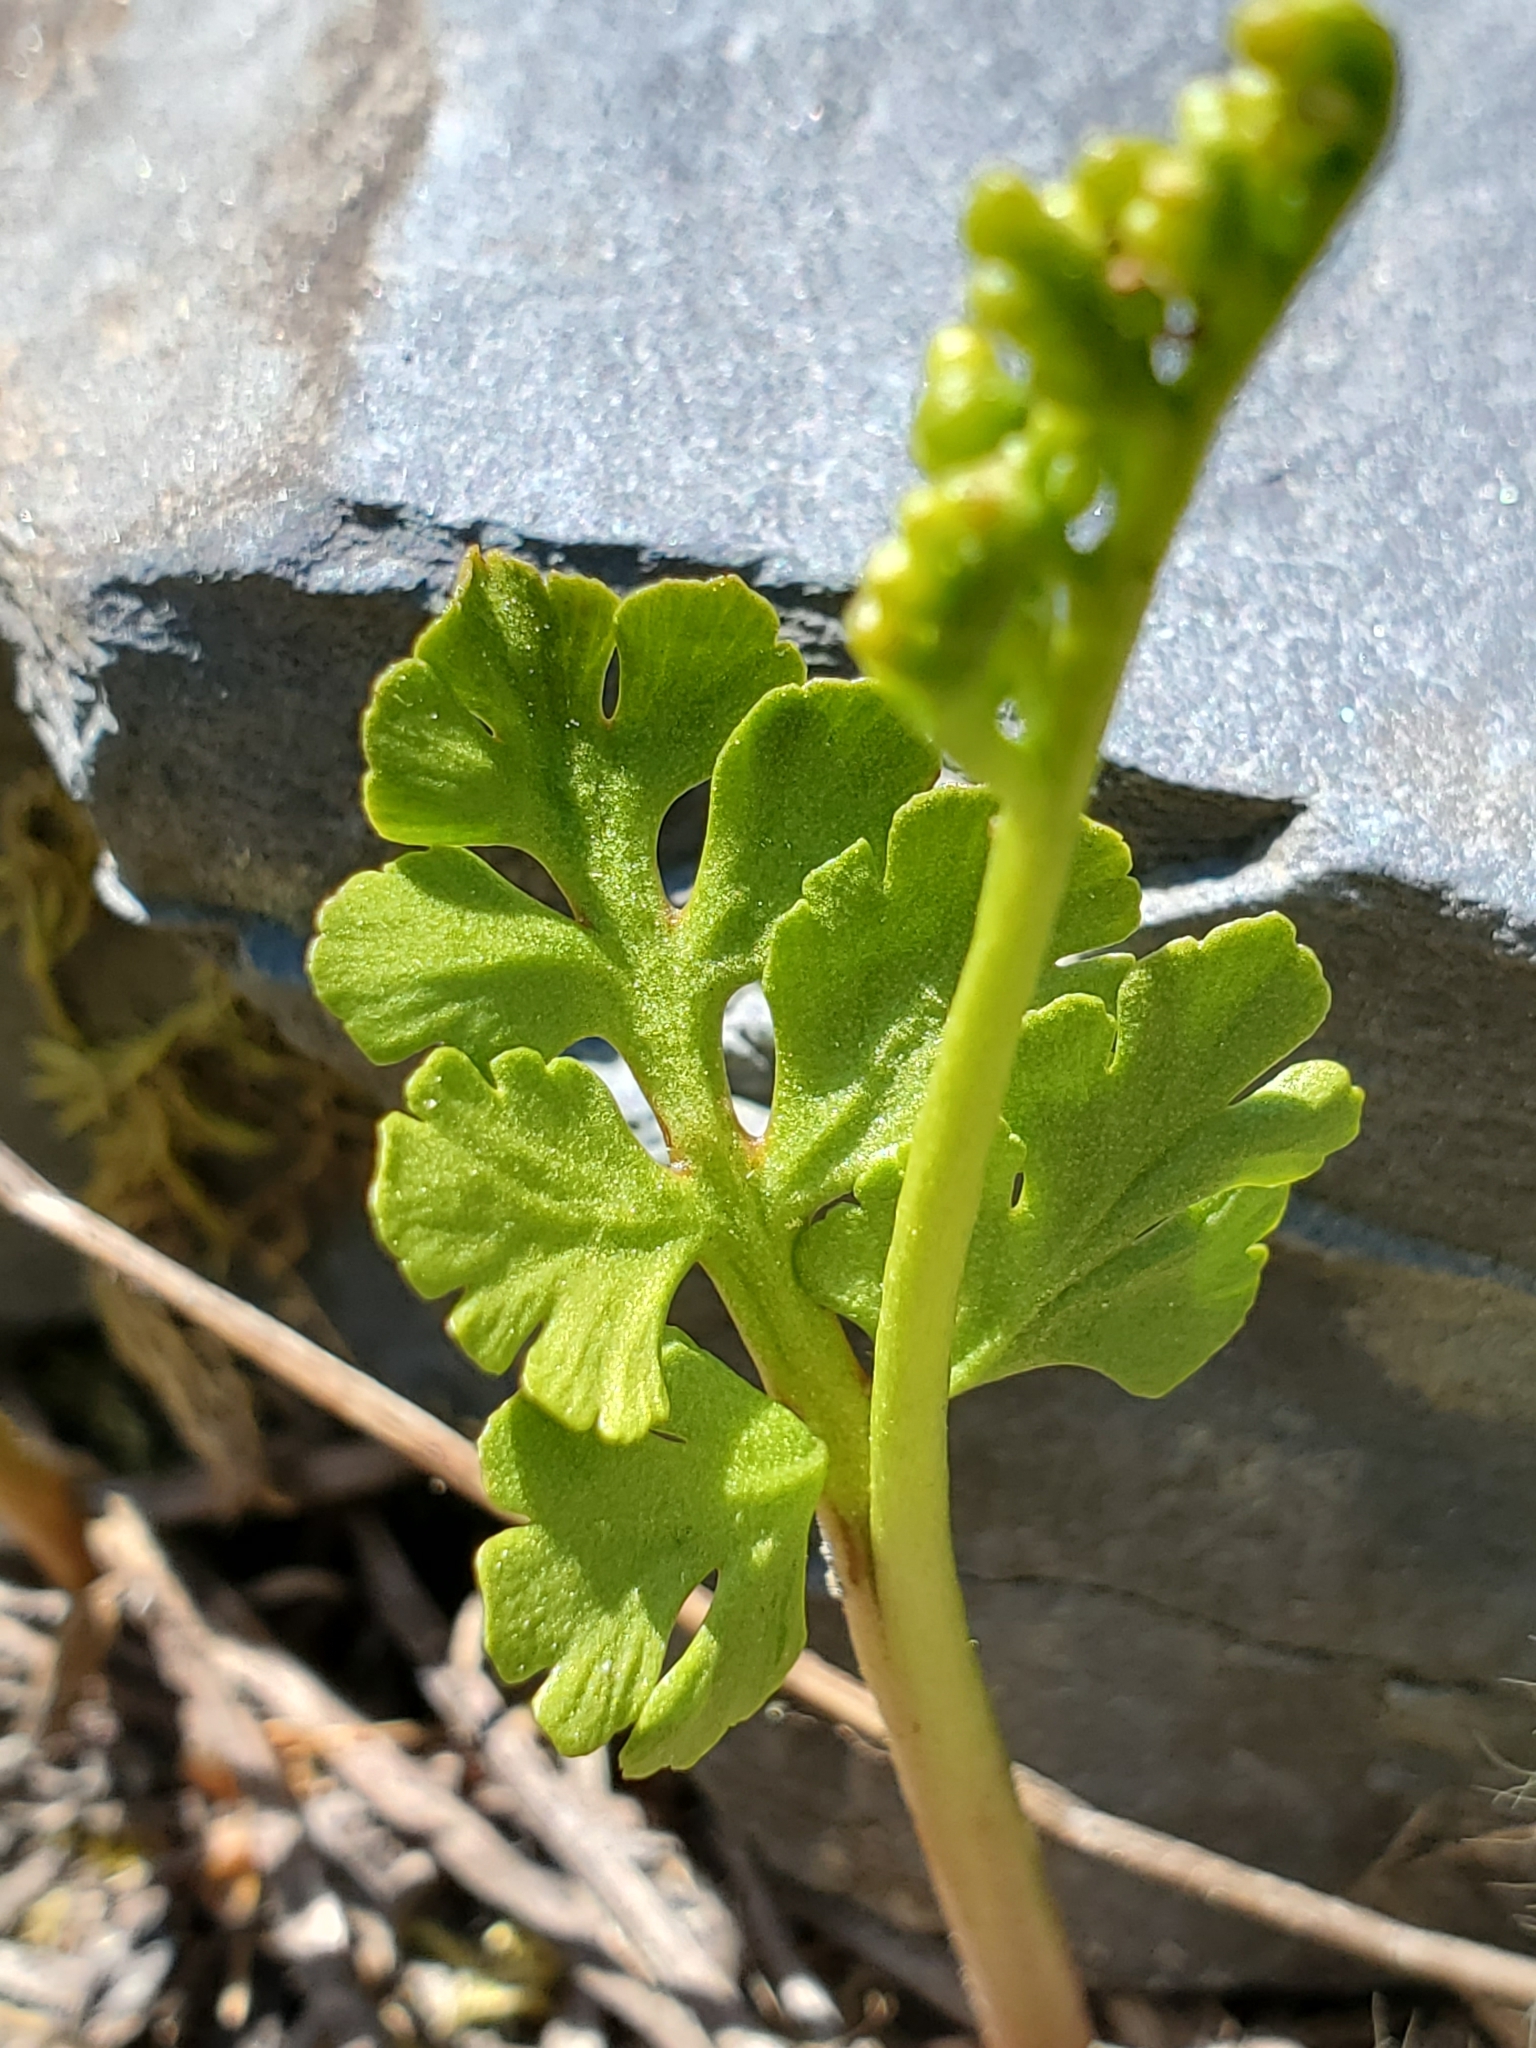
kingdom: Plantae
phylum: Tracheophyta
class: Polypodiopsida
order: Ophioglossales
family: Ophioglossaceae
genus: Botrychium
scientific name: Botrychium pinnatum
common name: Northwestern moonwort
